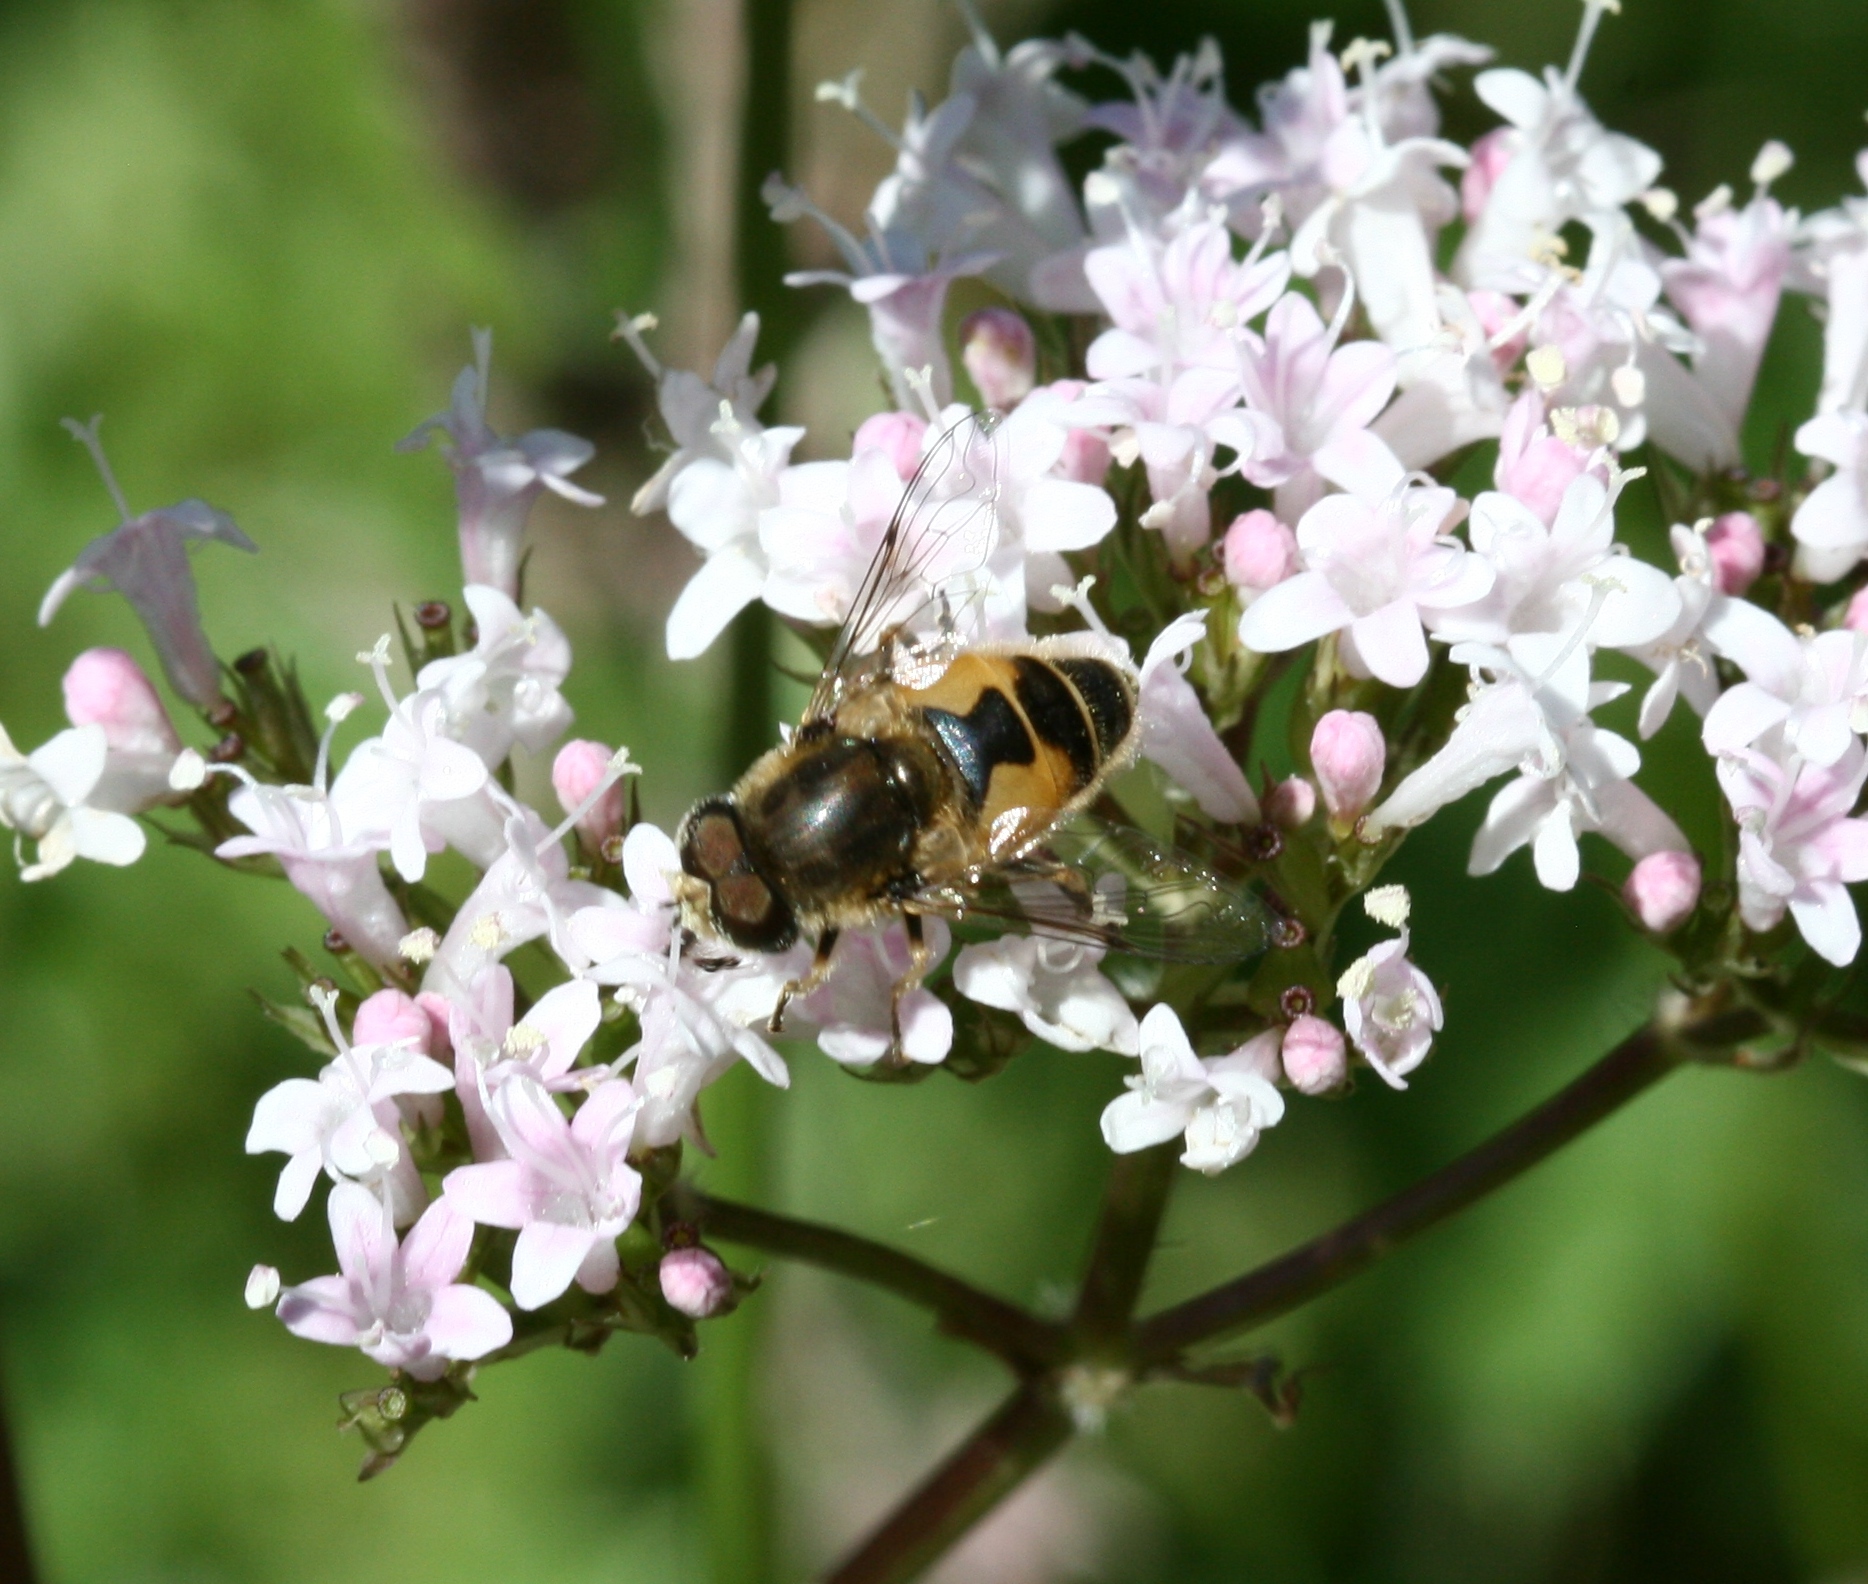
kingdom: Animalia
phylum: Arthropoda
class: Insecta
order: Diptera
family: Syrphidae
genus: Eristalis
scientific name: Eristalis arbustorum
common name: Hover fly
